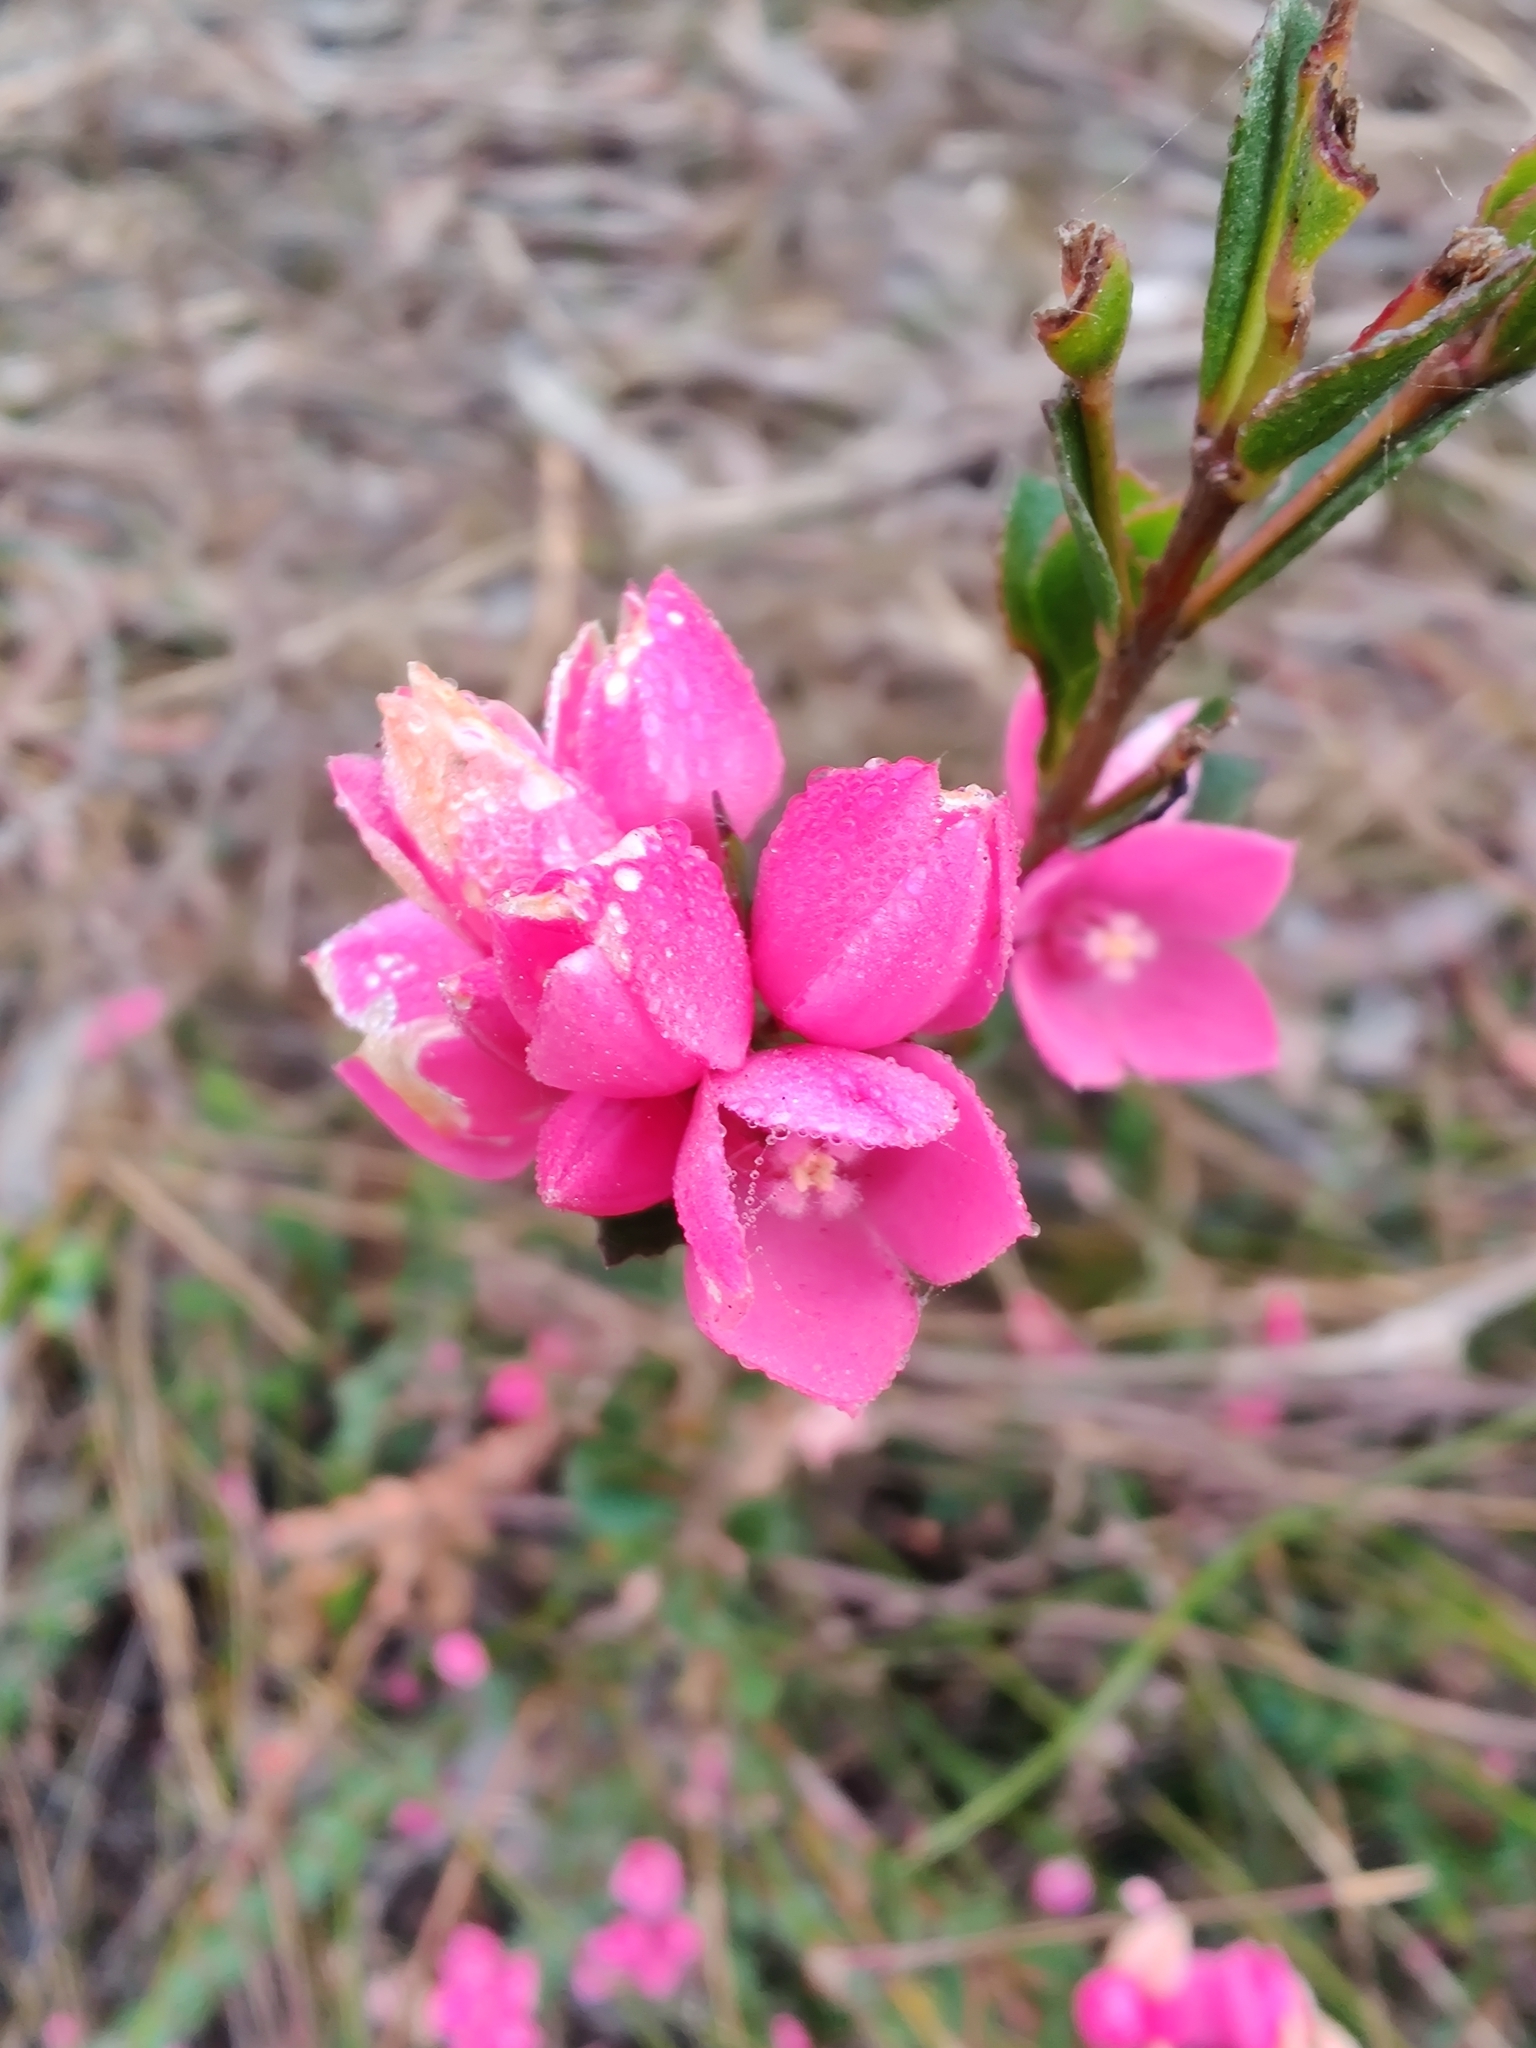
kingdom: Plantae
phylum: Tracheophyta
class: Magnoliopsida
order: Sapindales
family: Rutaceae
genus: Boronia
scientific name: Boronia serrulata
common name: Rose boronia
